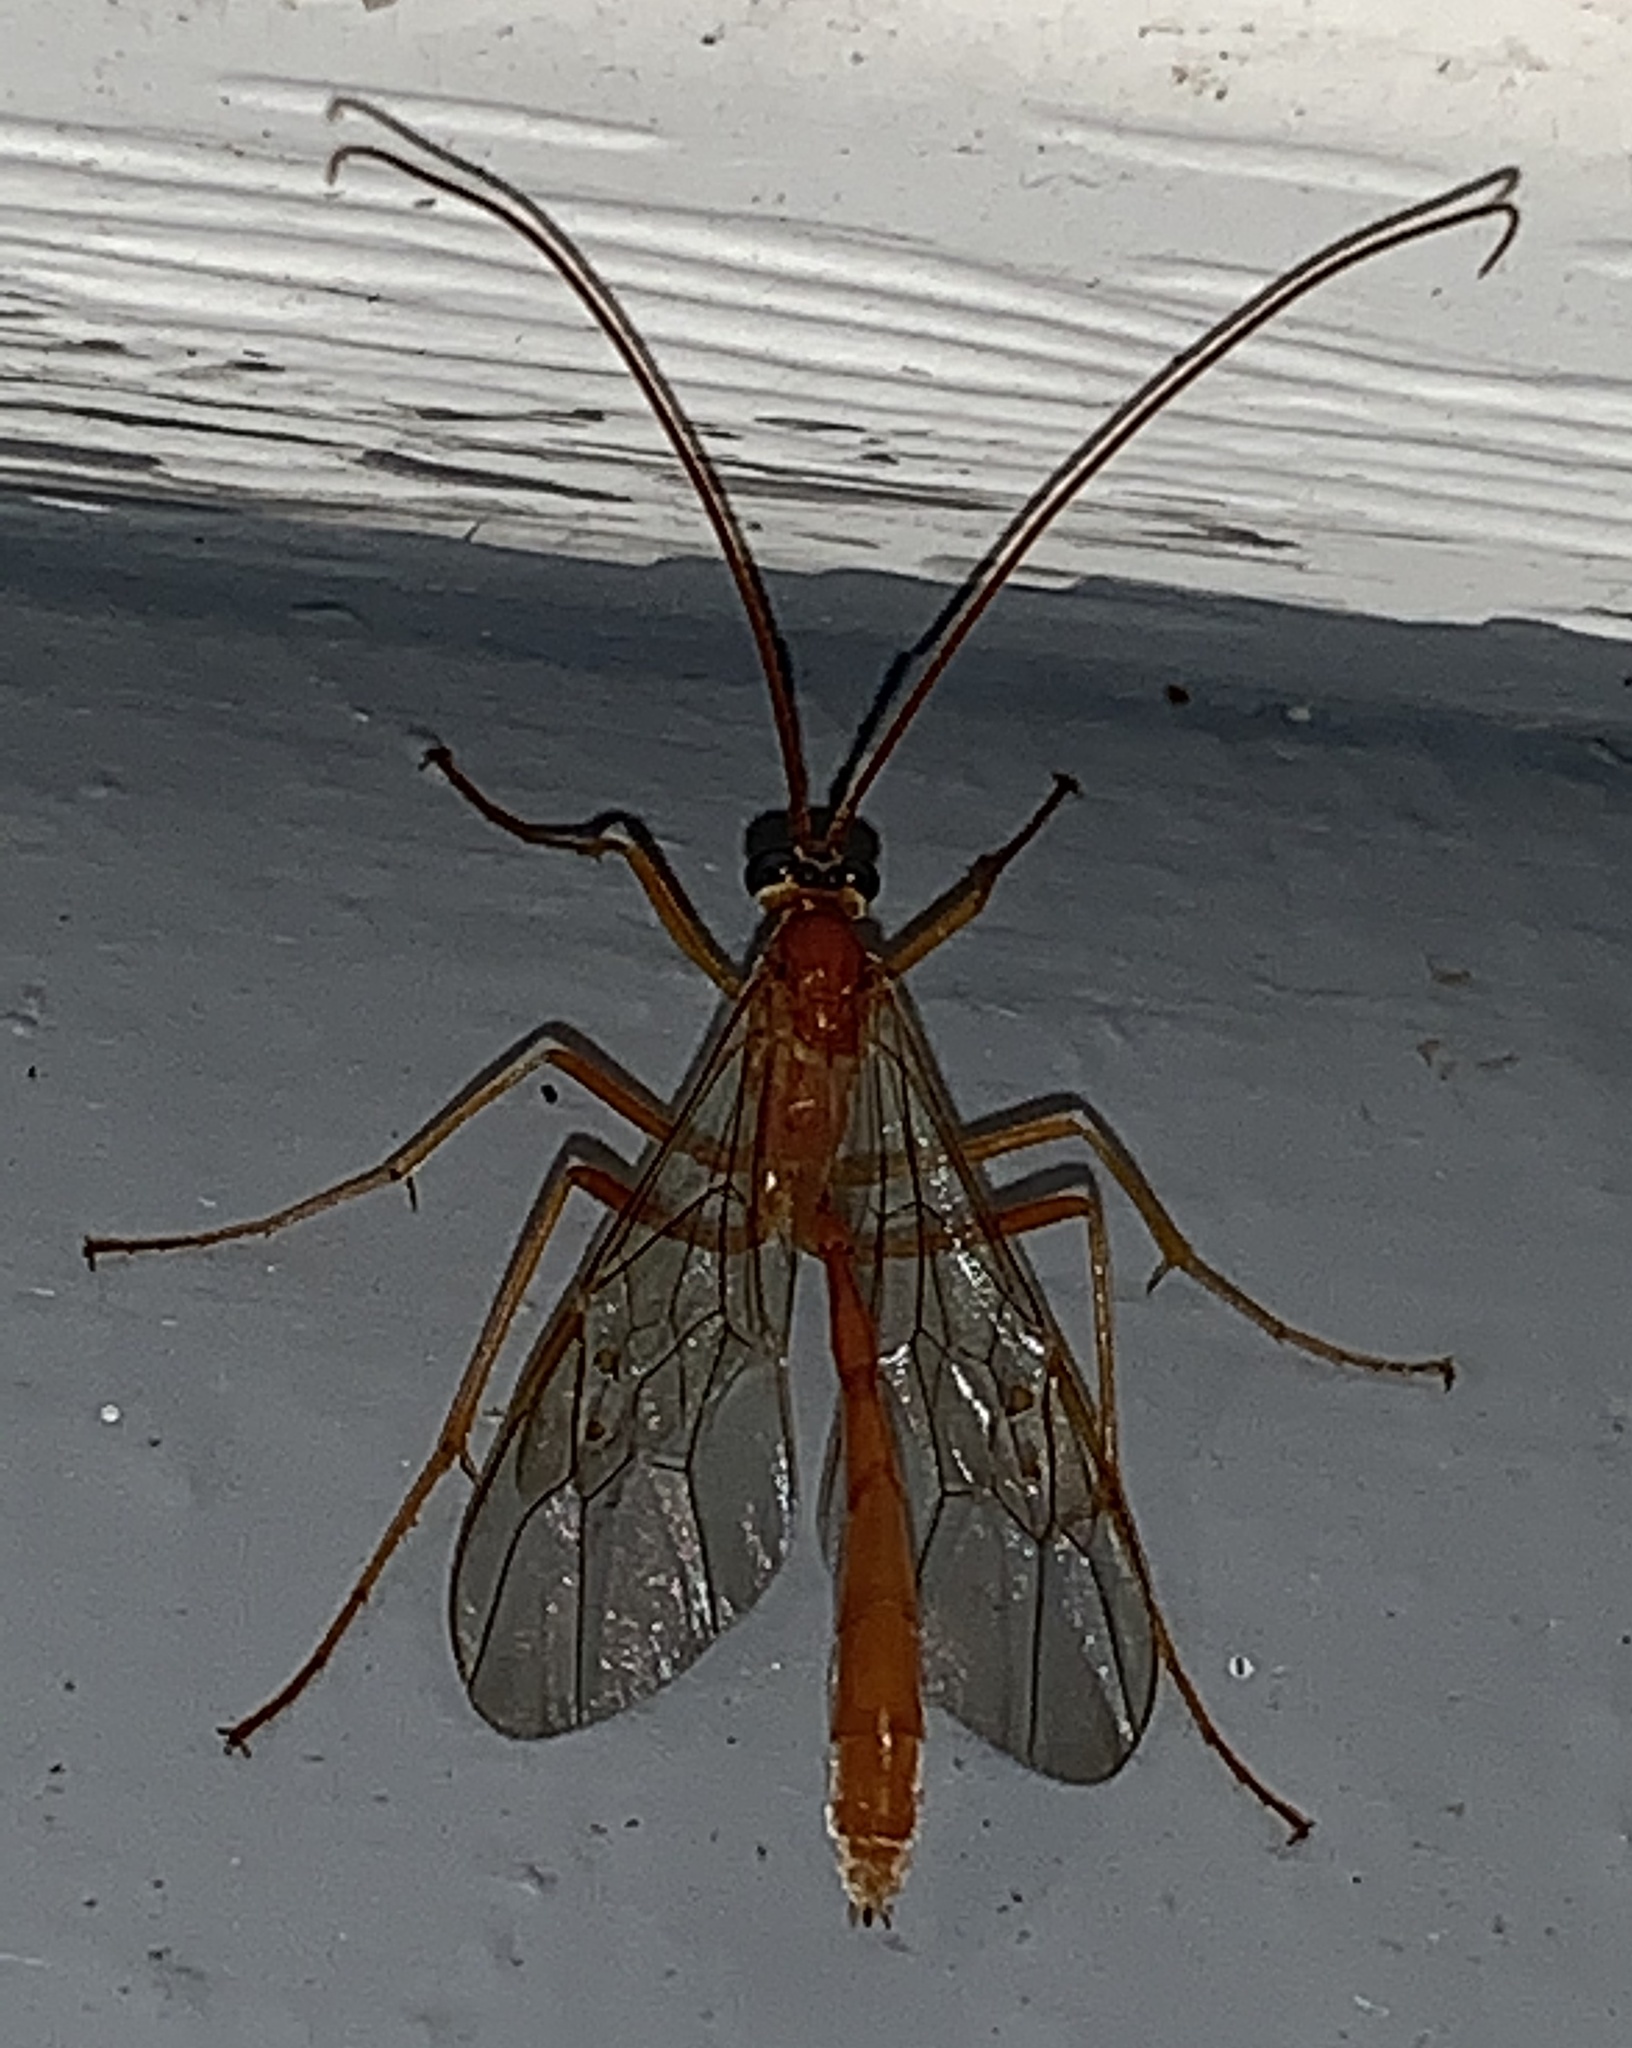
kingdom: Animalia
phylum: Arthropoda
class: Insecta
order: Hymenoptera
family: Ichneumonidae
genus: Enicospilus
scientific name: Enicospilus purgatus
